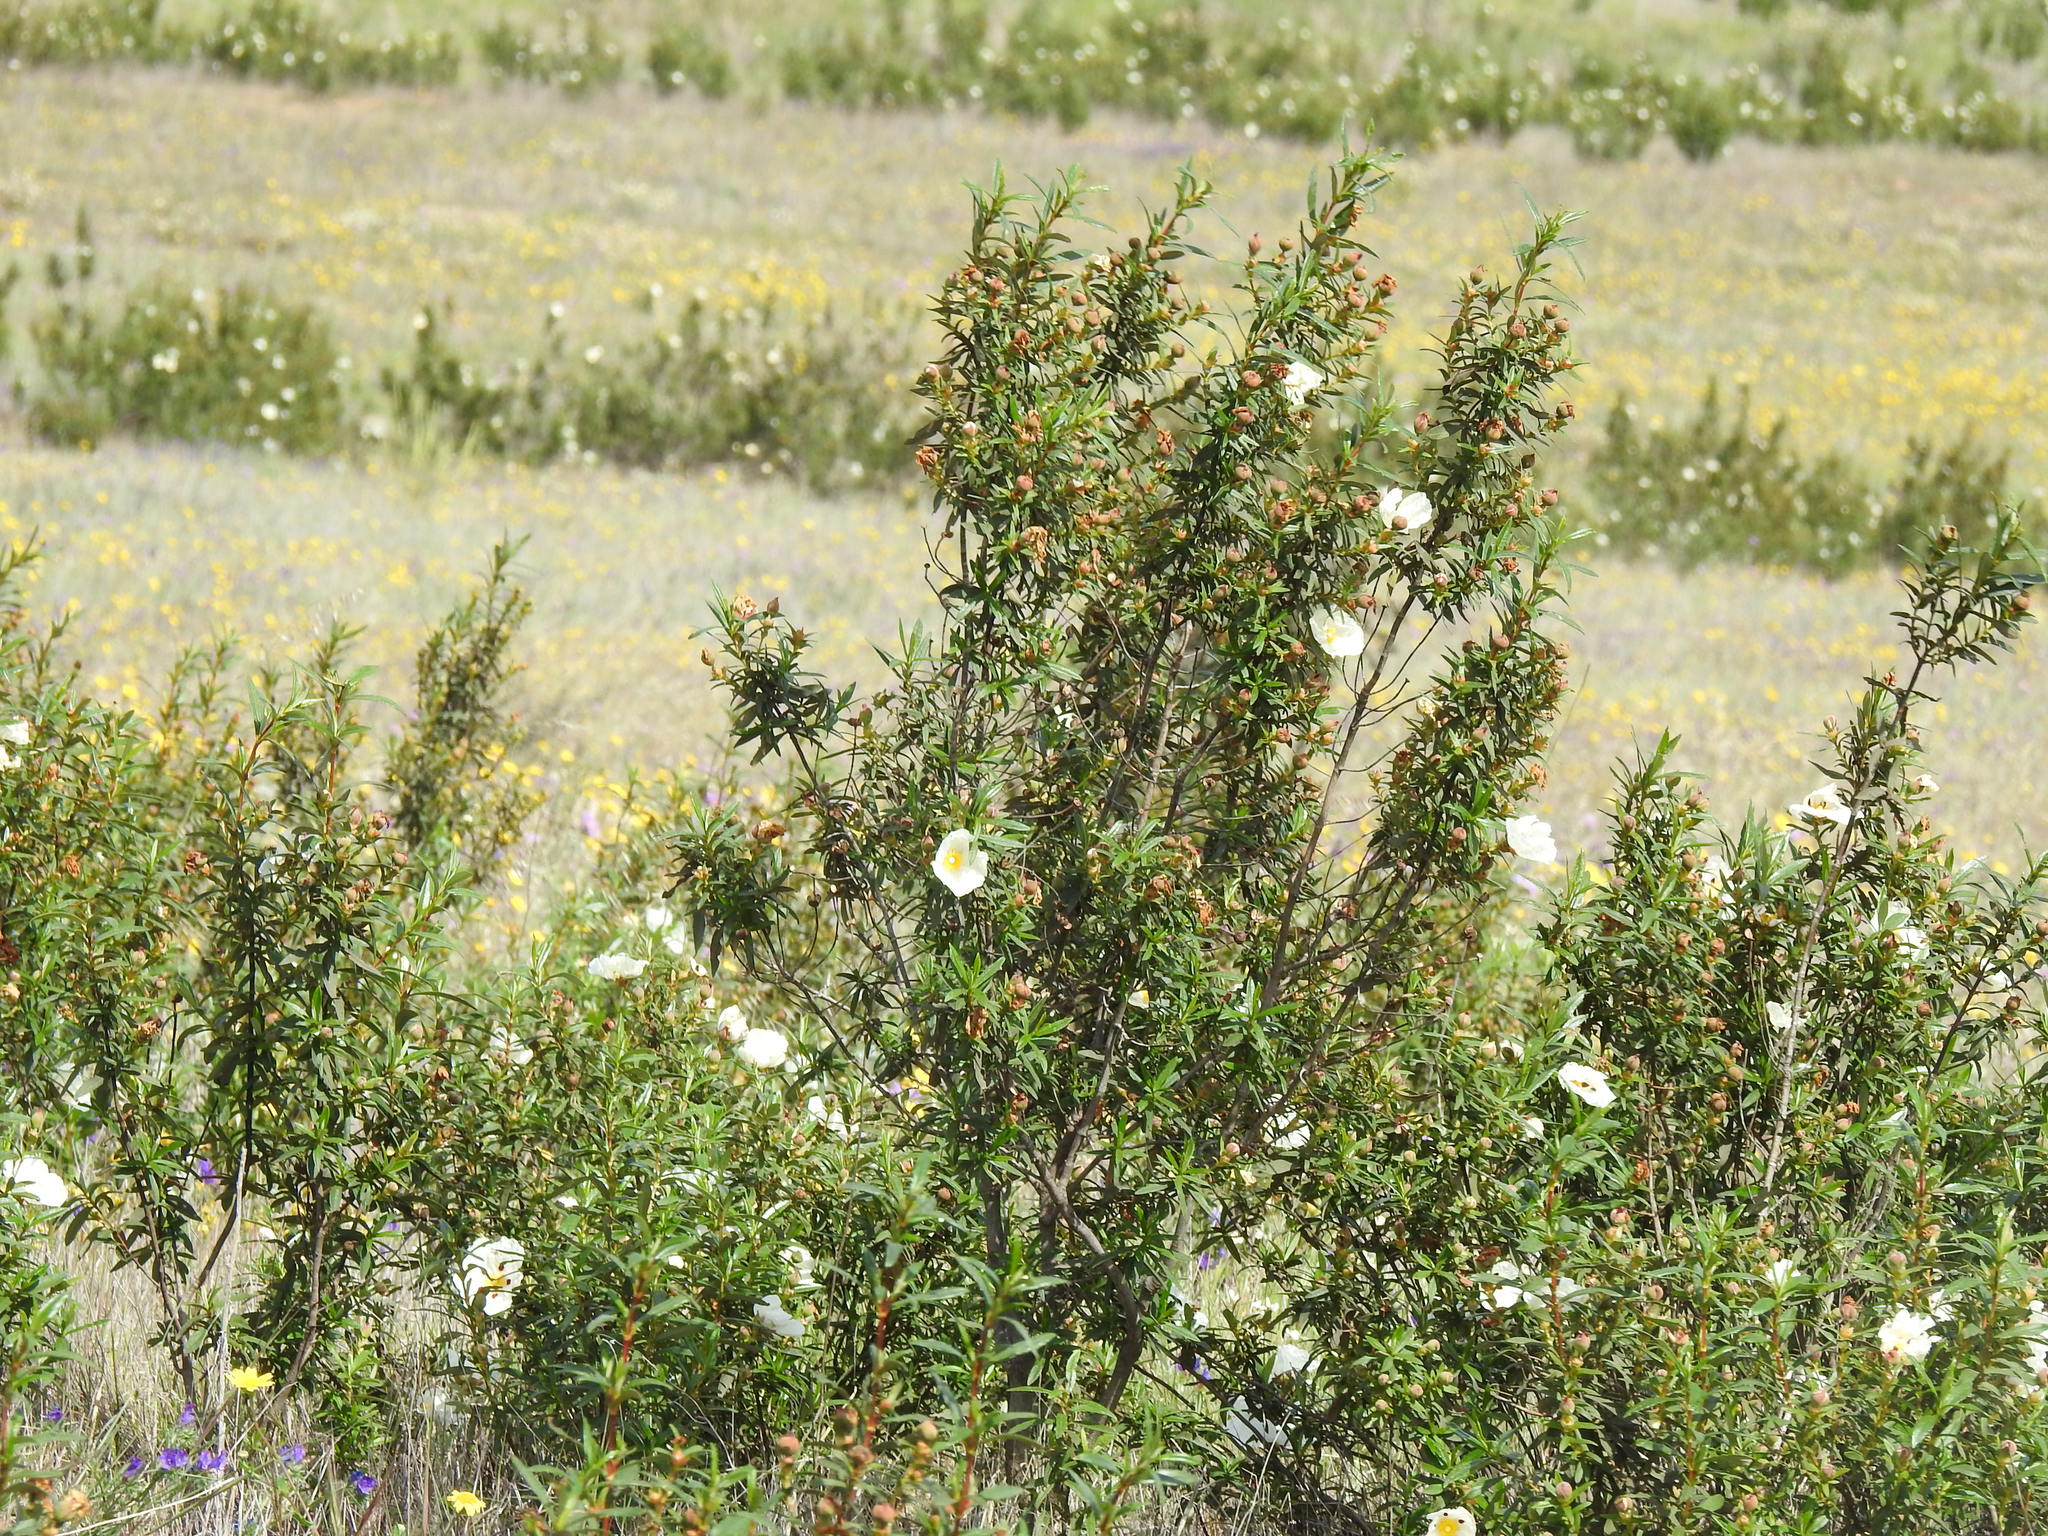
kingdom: Plantae
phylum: Tracheophyta
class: Magnoliopsida
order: Malvales
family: Cistaceae
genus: Cistus
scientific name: Cistus ladanifer
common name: Common gum cistus
